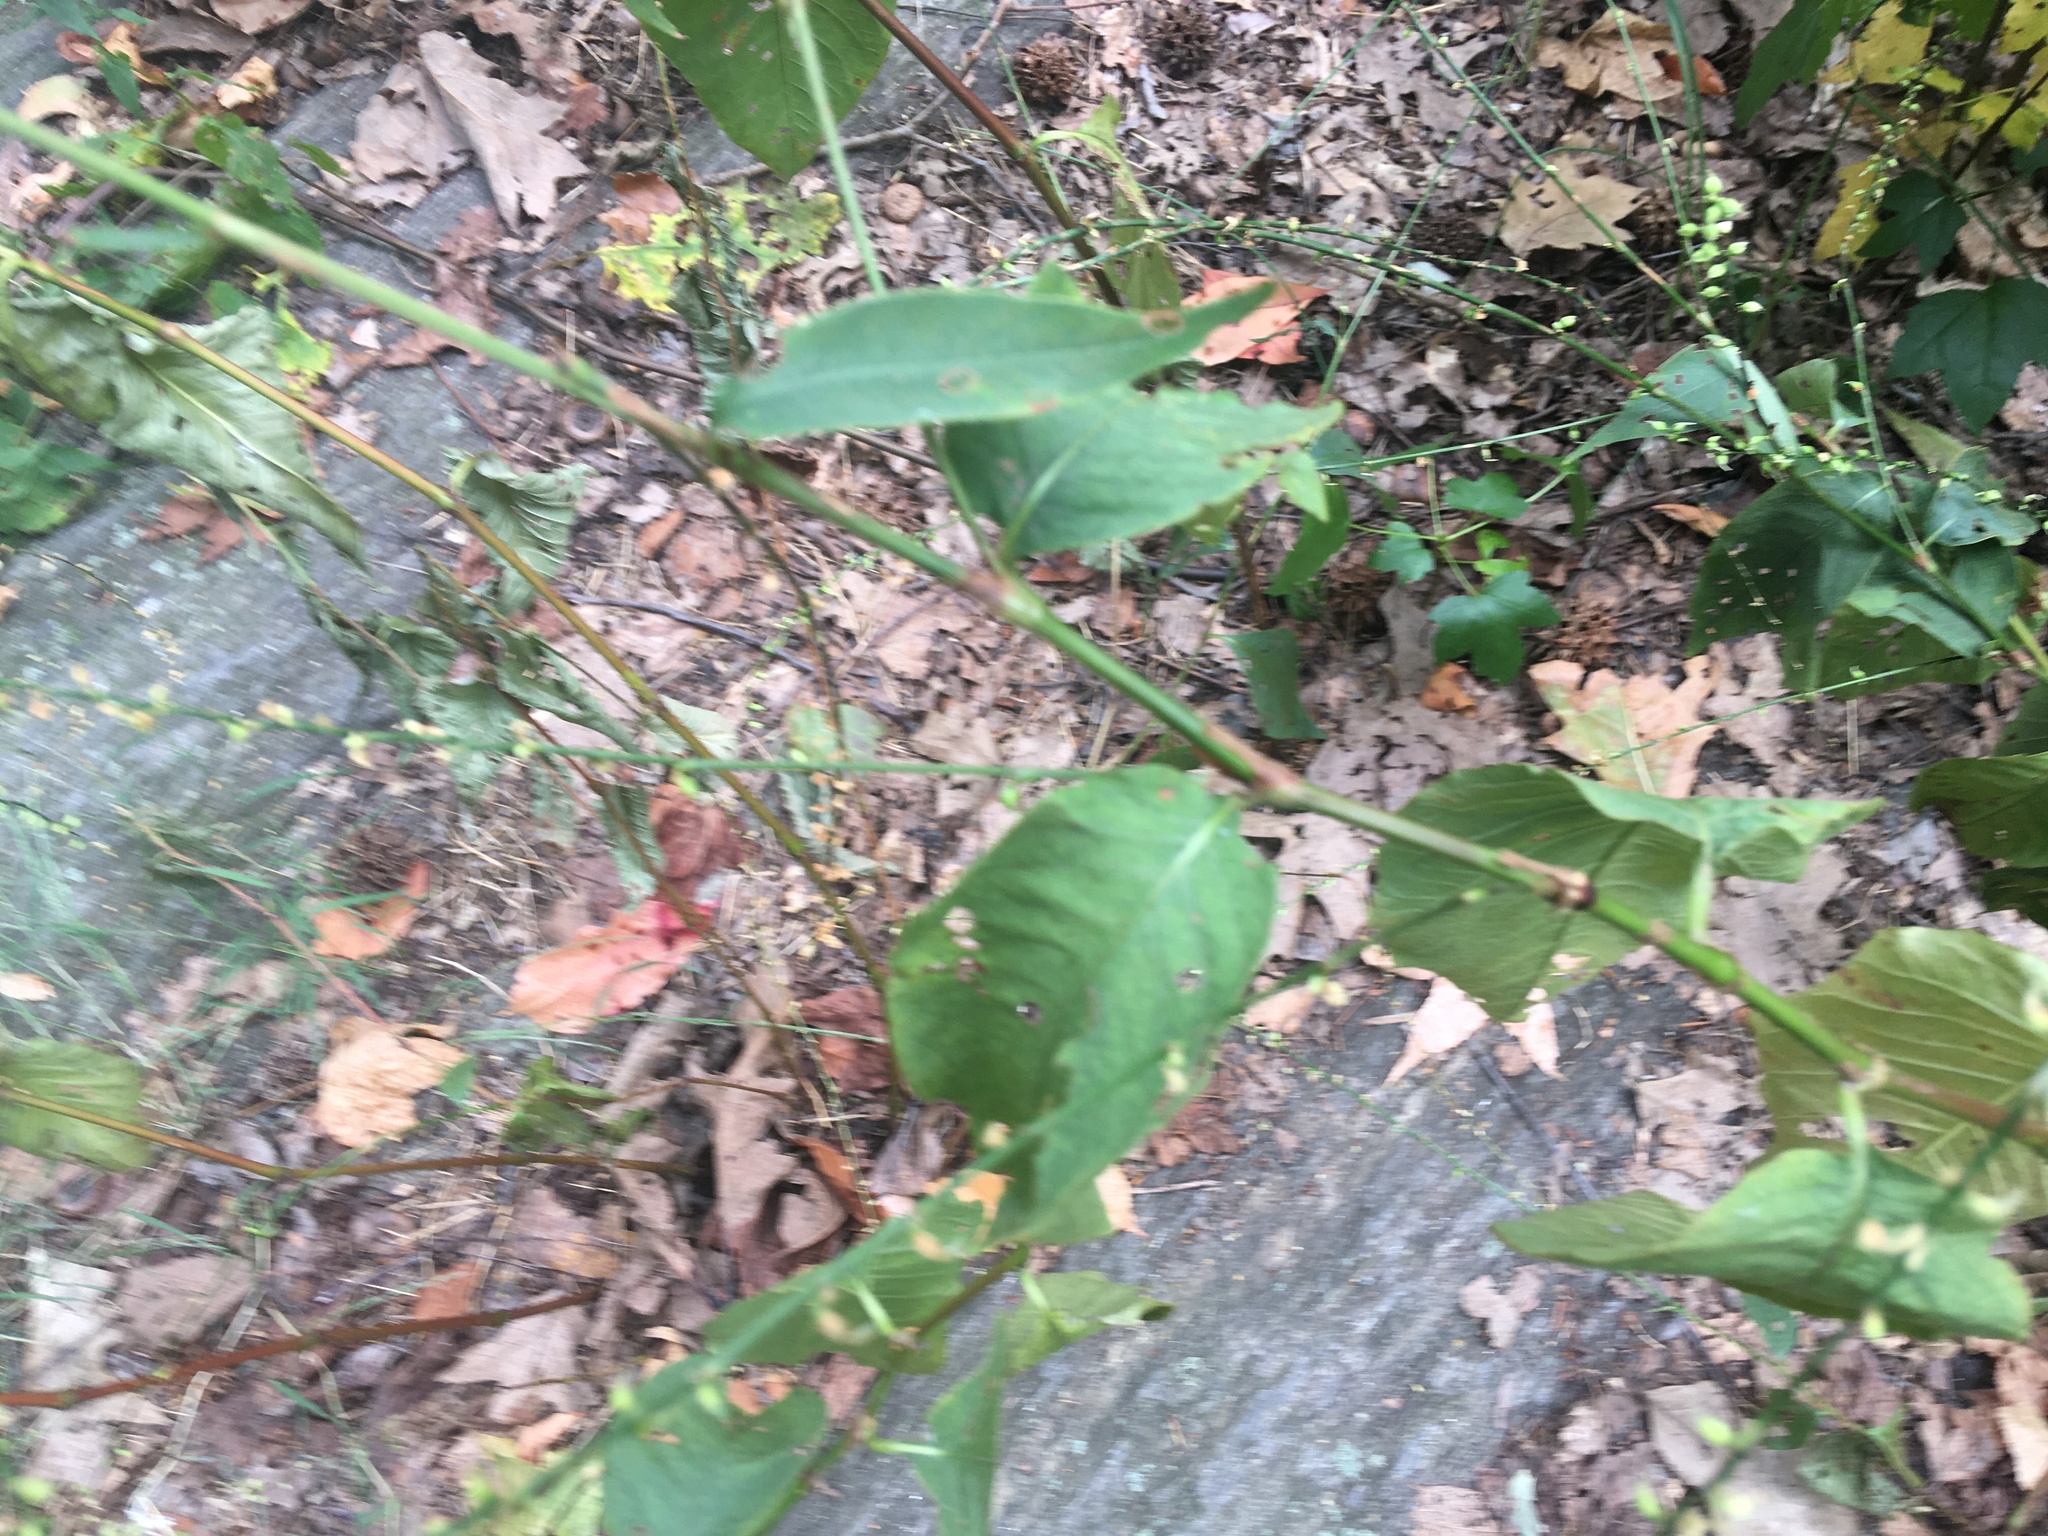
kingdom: Plantae
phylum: Tracheophyta
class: Magnoliopsida
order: Caryophyllales
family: Polygonaceae
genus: Persicaria
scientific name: Persicaria virginiana
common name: Jumpseed
